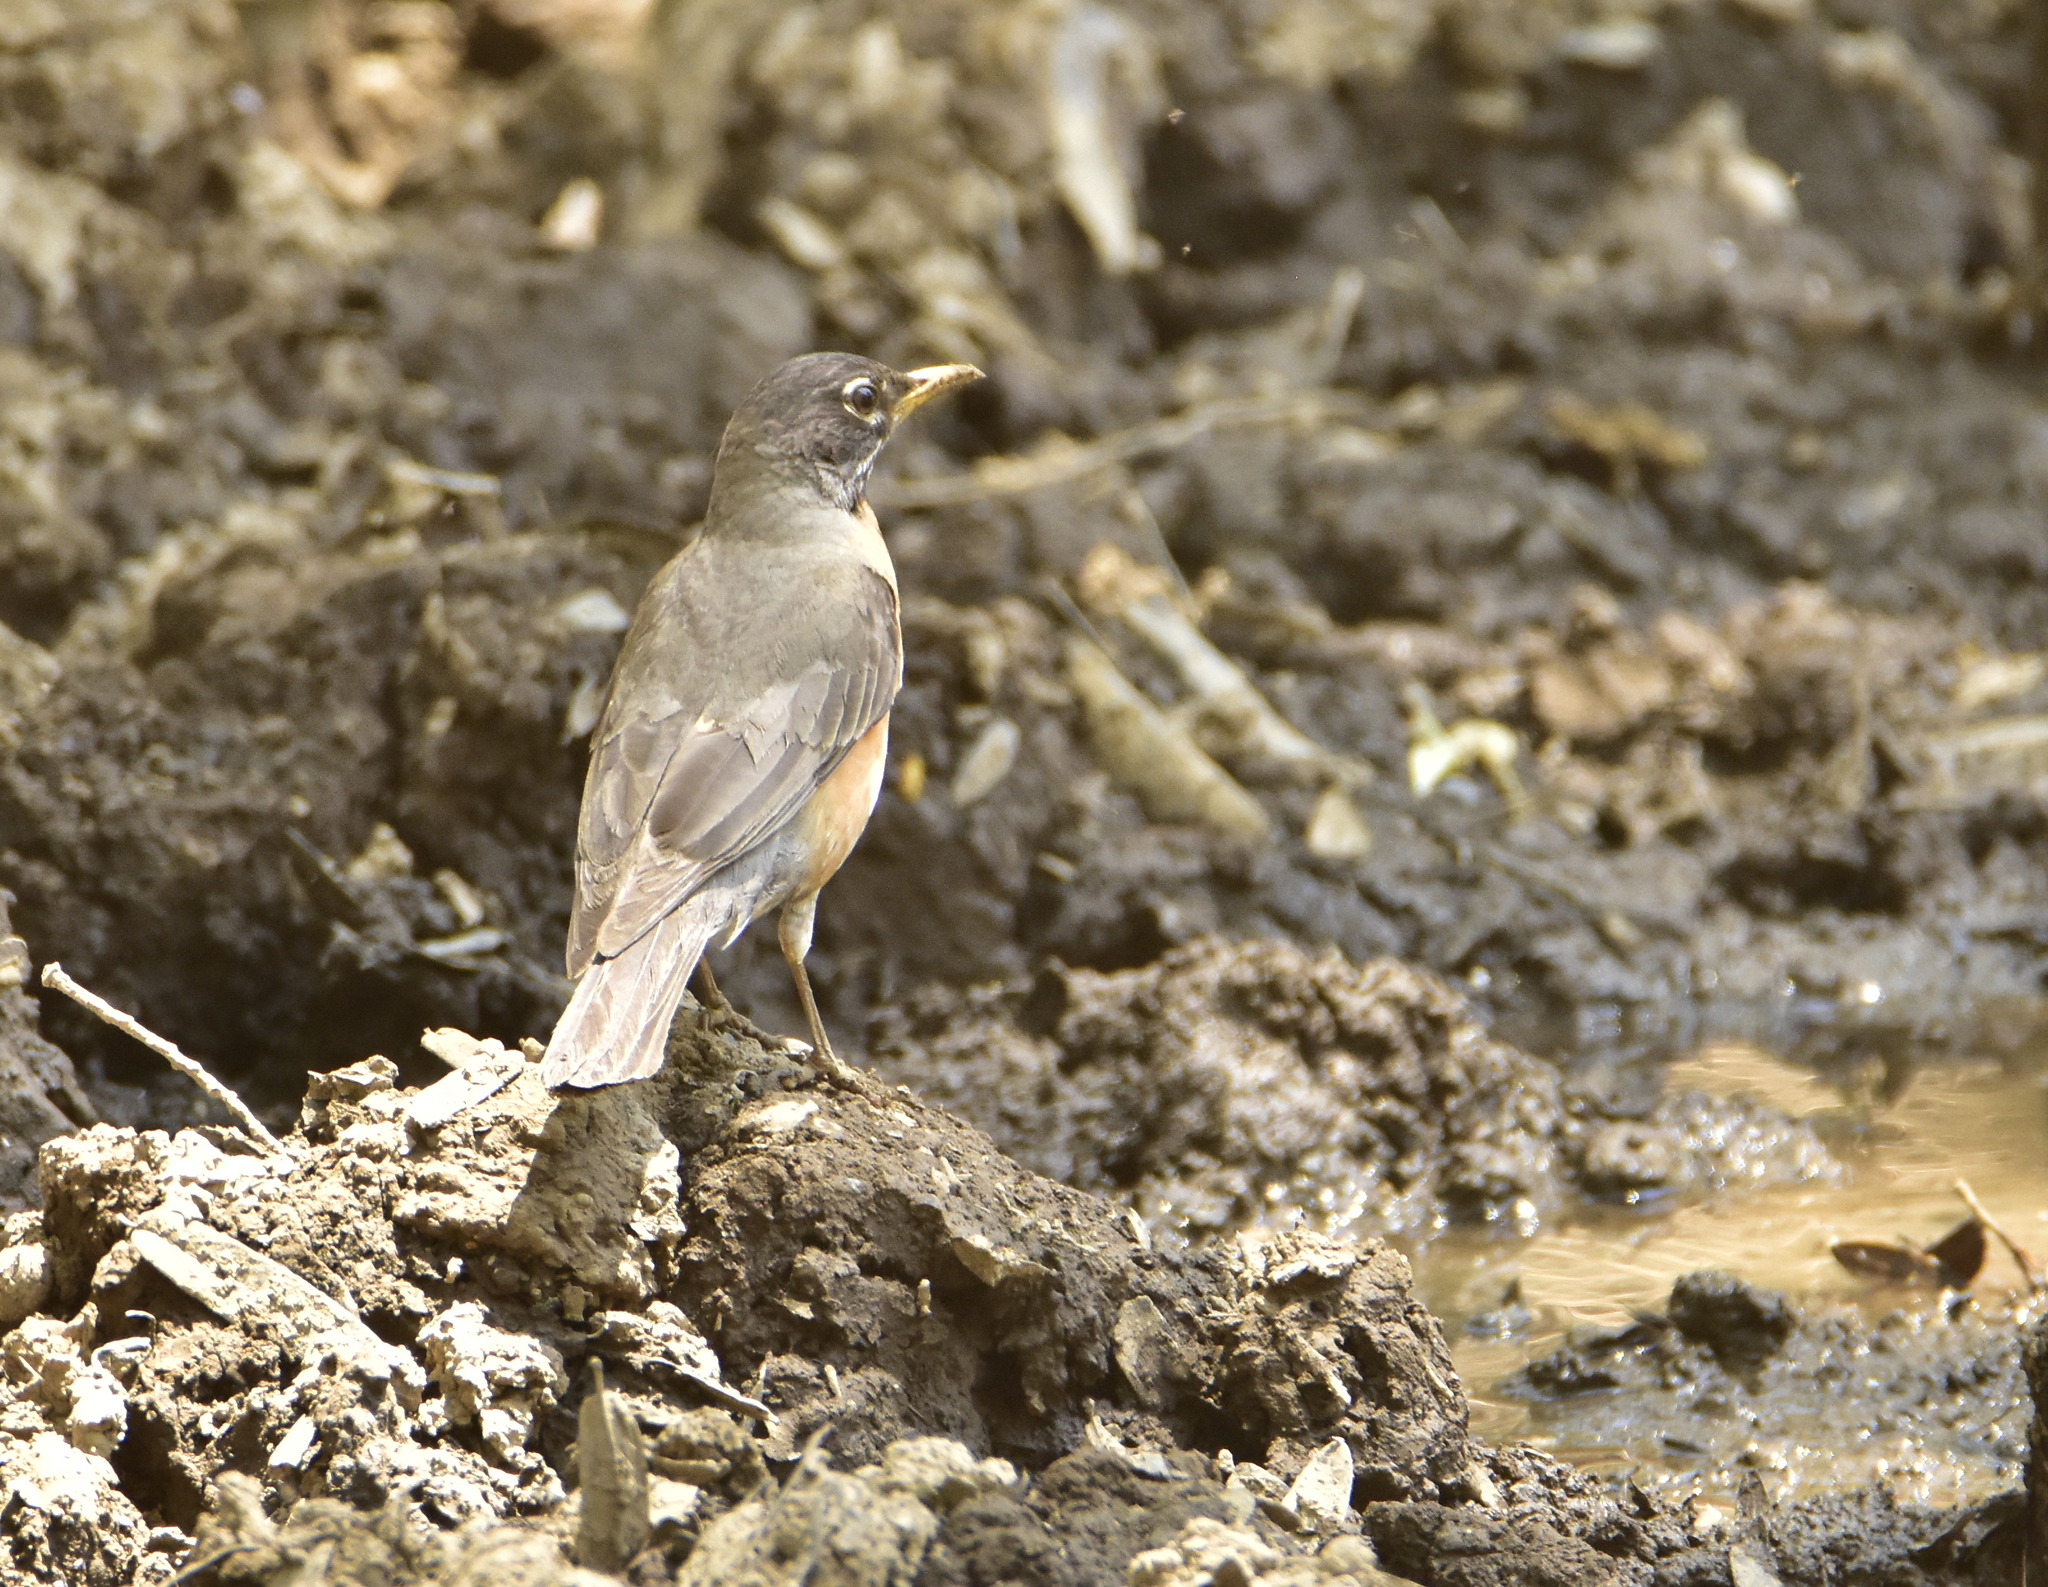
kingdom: Animalia
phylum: Chordata
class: Aves
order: Passeriformes
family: Turdidae
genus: Turdus
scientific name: Turdus migratorius
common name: American robin
